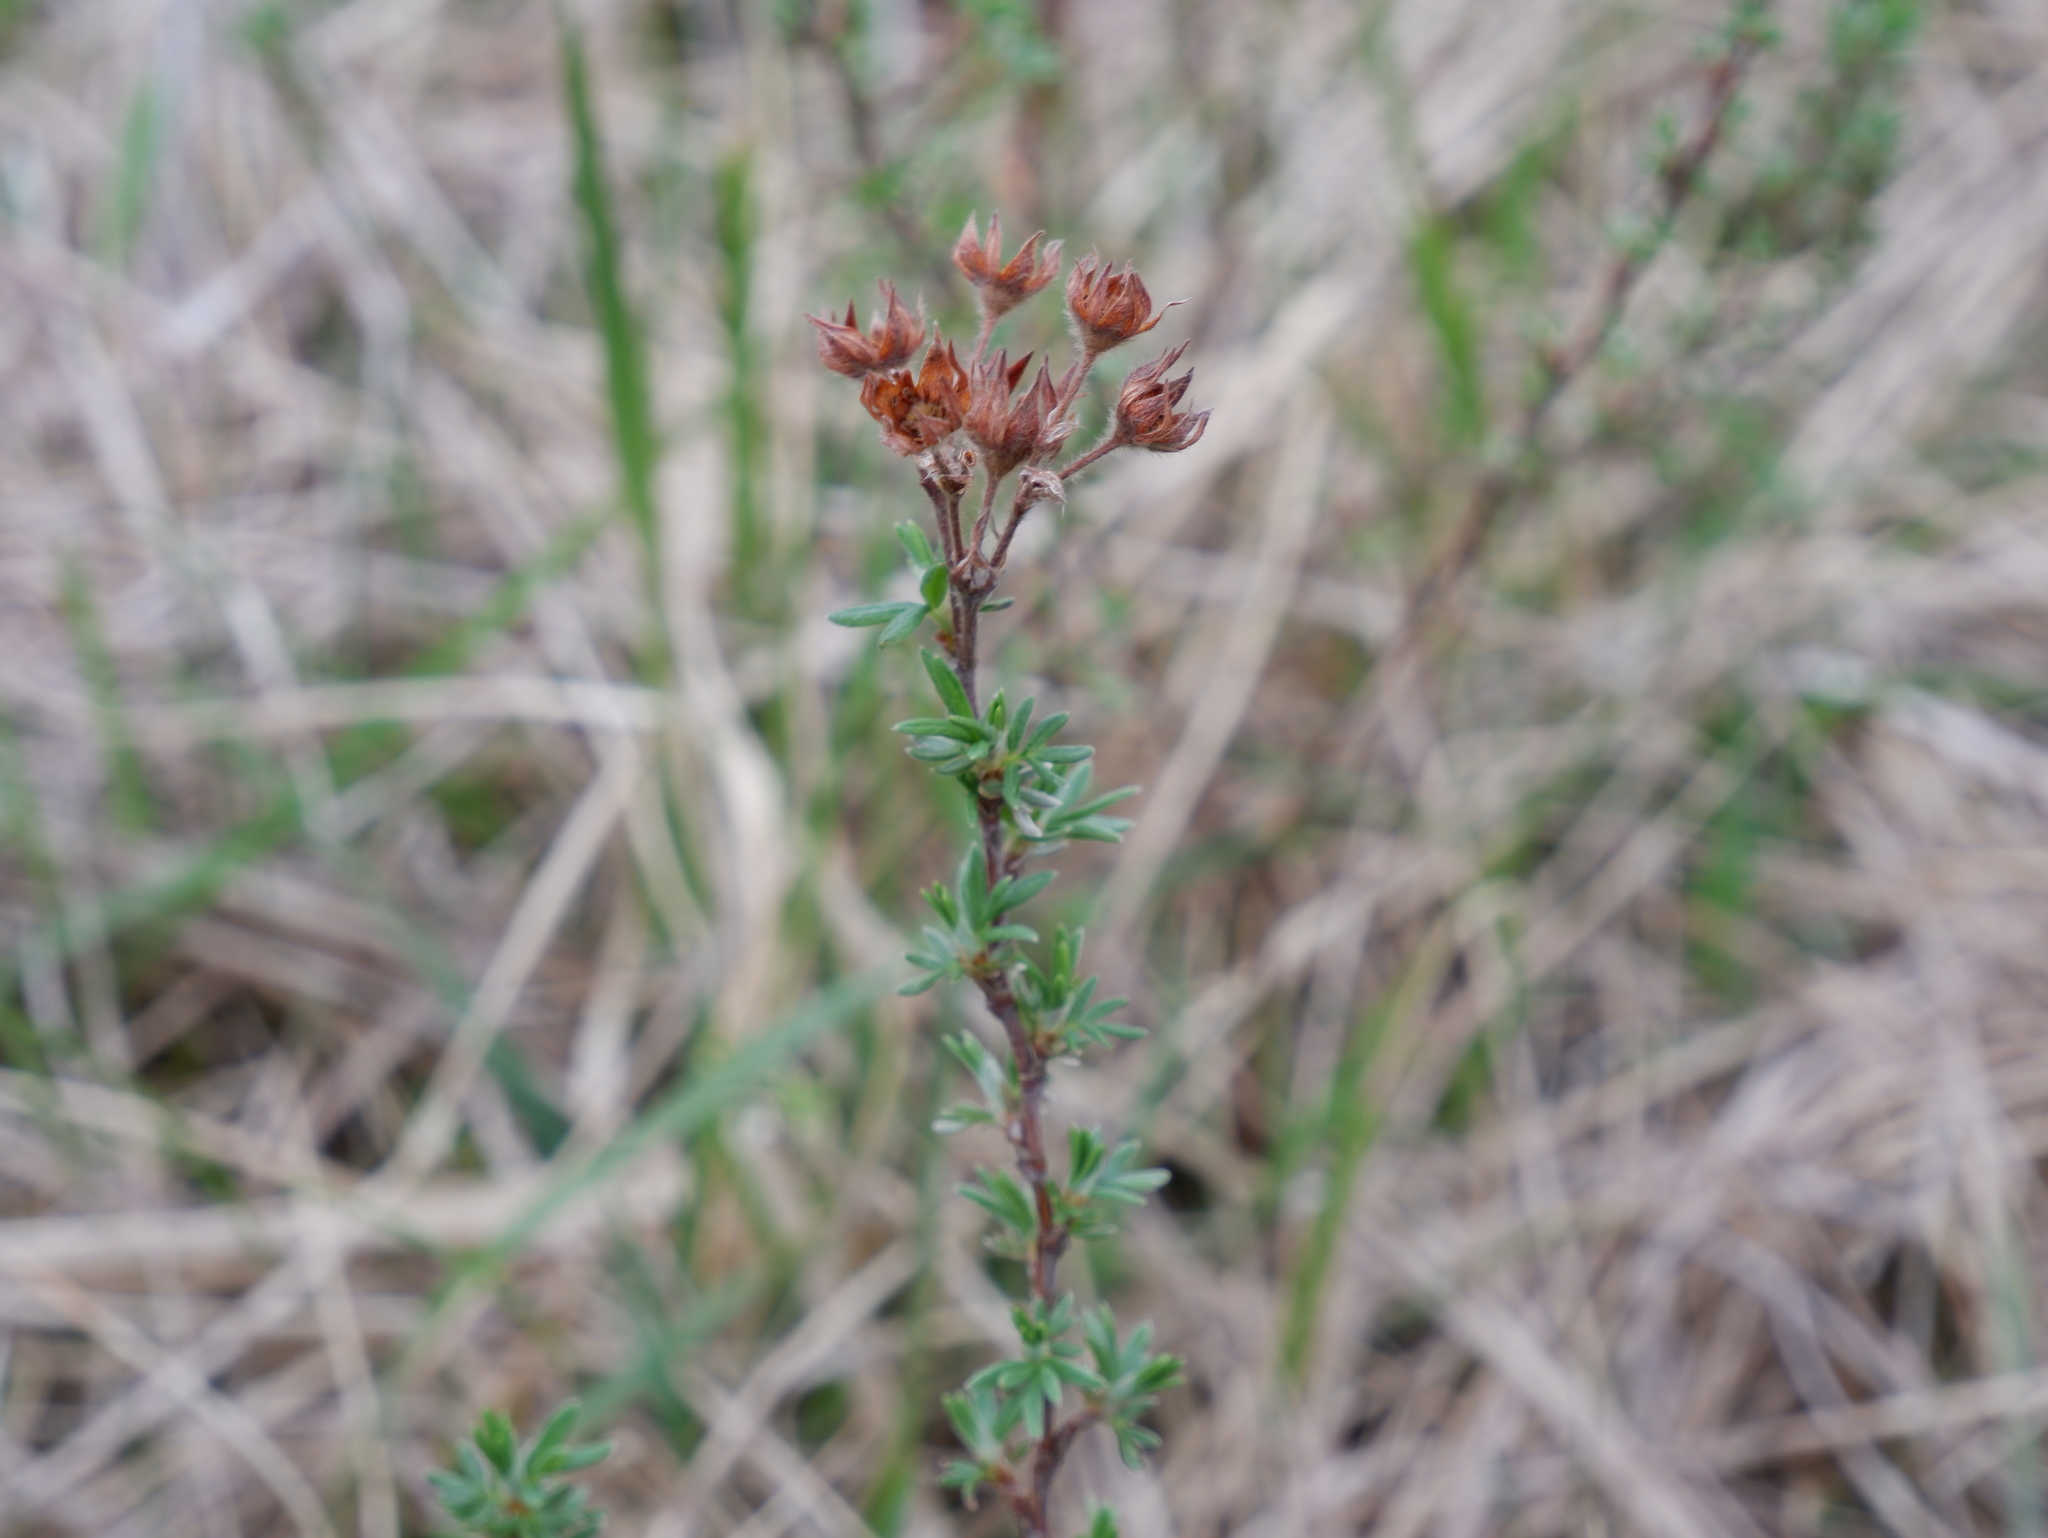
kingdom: Plantae
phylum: Tracheophyta
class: Magnoliopsida
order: Rosales
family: Rosaceae
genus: Dasiphora
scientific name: Dasiphora fruticosa
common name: Shrubby cinquefoil
